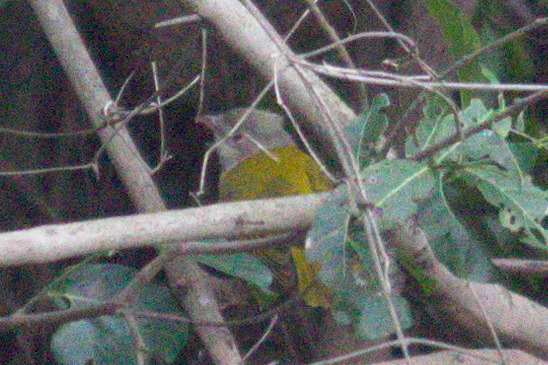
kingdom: Animalia
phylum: Chordata
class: Aves
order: Passeriformes
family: Thraupidae
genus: Eucometis
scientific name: Eucometis penicillata
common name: Grey-headed tanager
